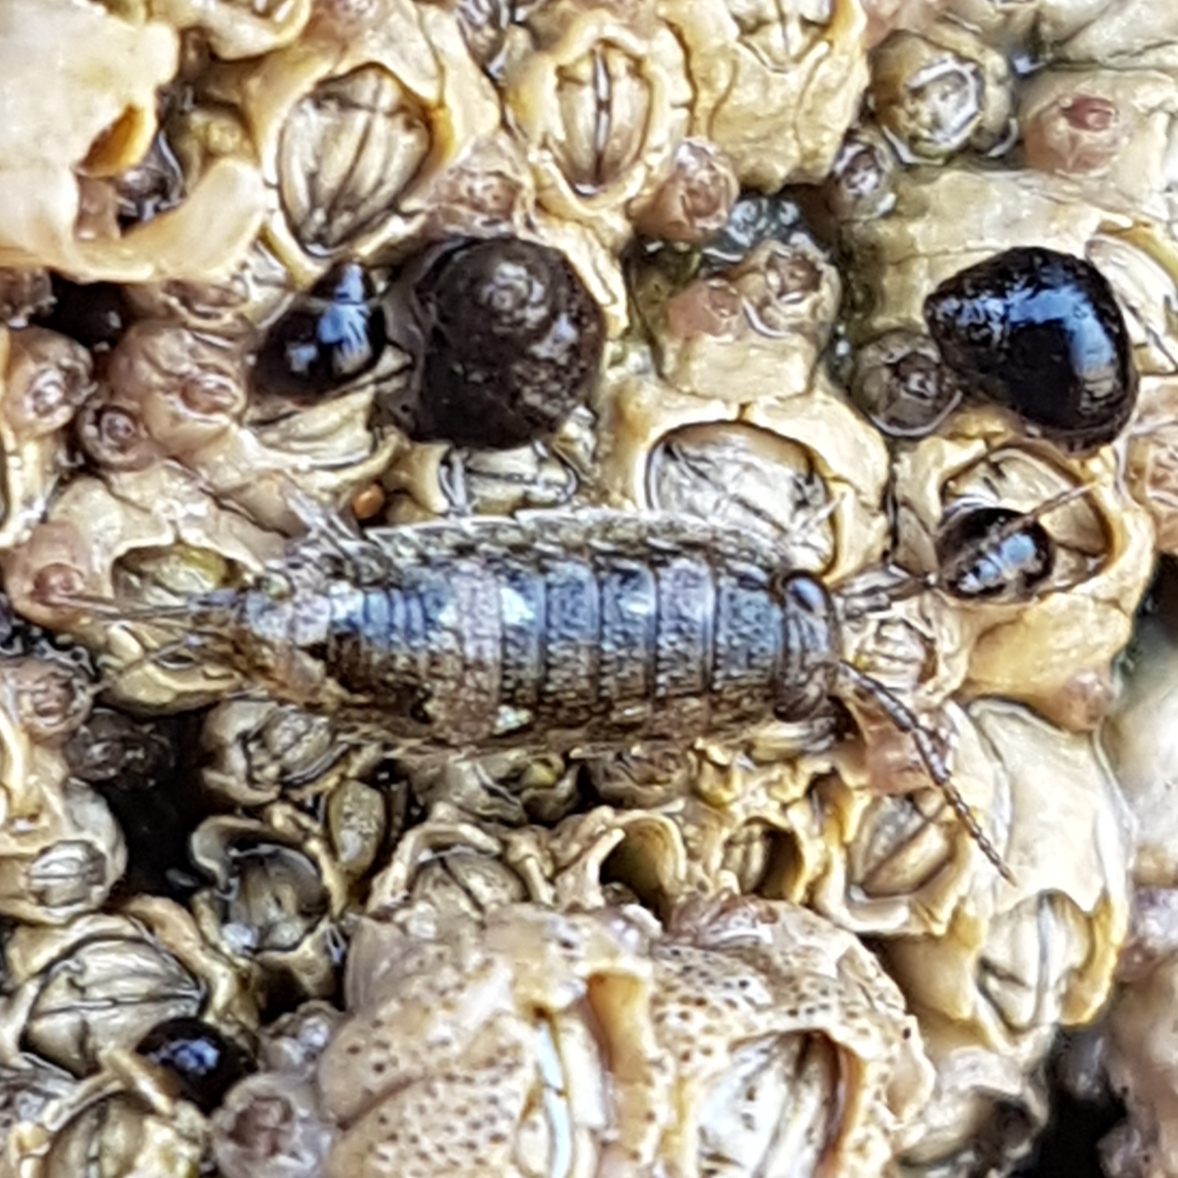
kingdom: Animalia
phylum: Arthropoda
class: Malacostraca
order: Isopoda
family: Ligiidae
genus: Ligia
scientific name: Ligia oceanica
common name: Sea slater
